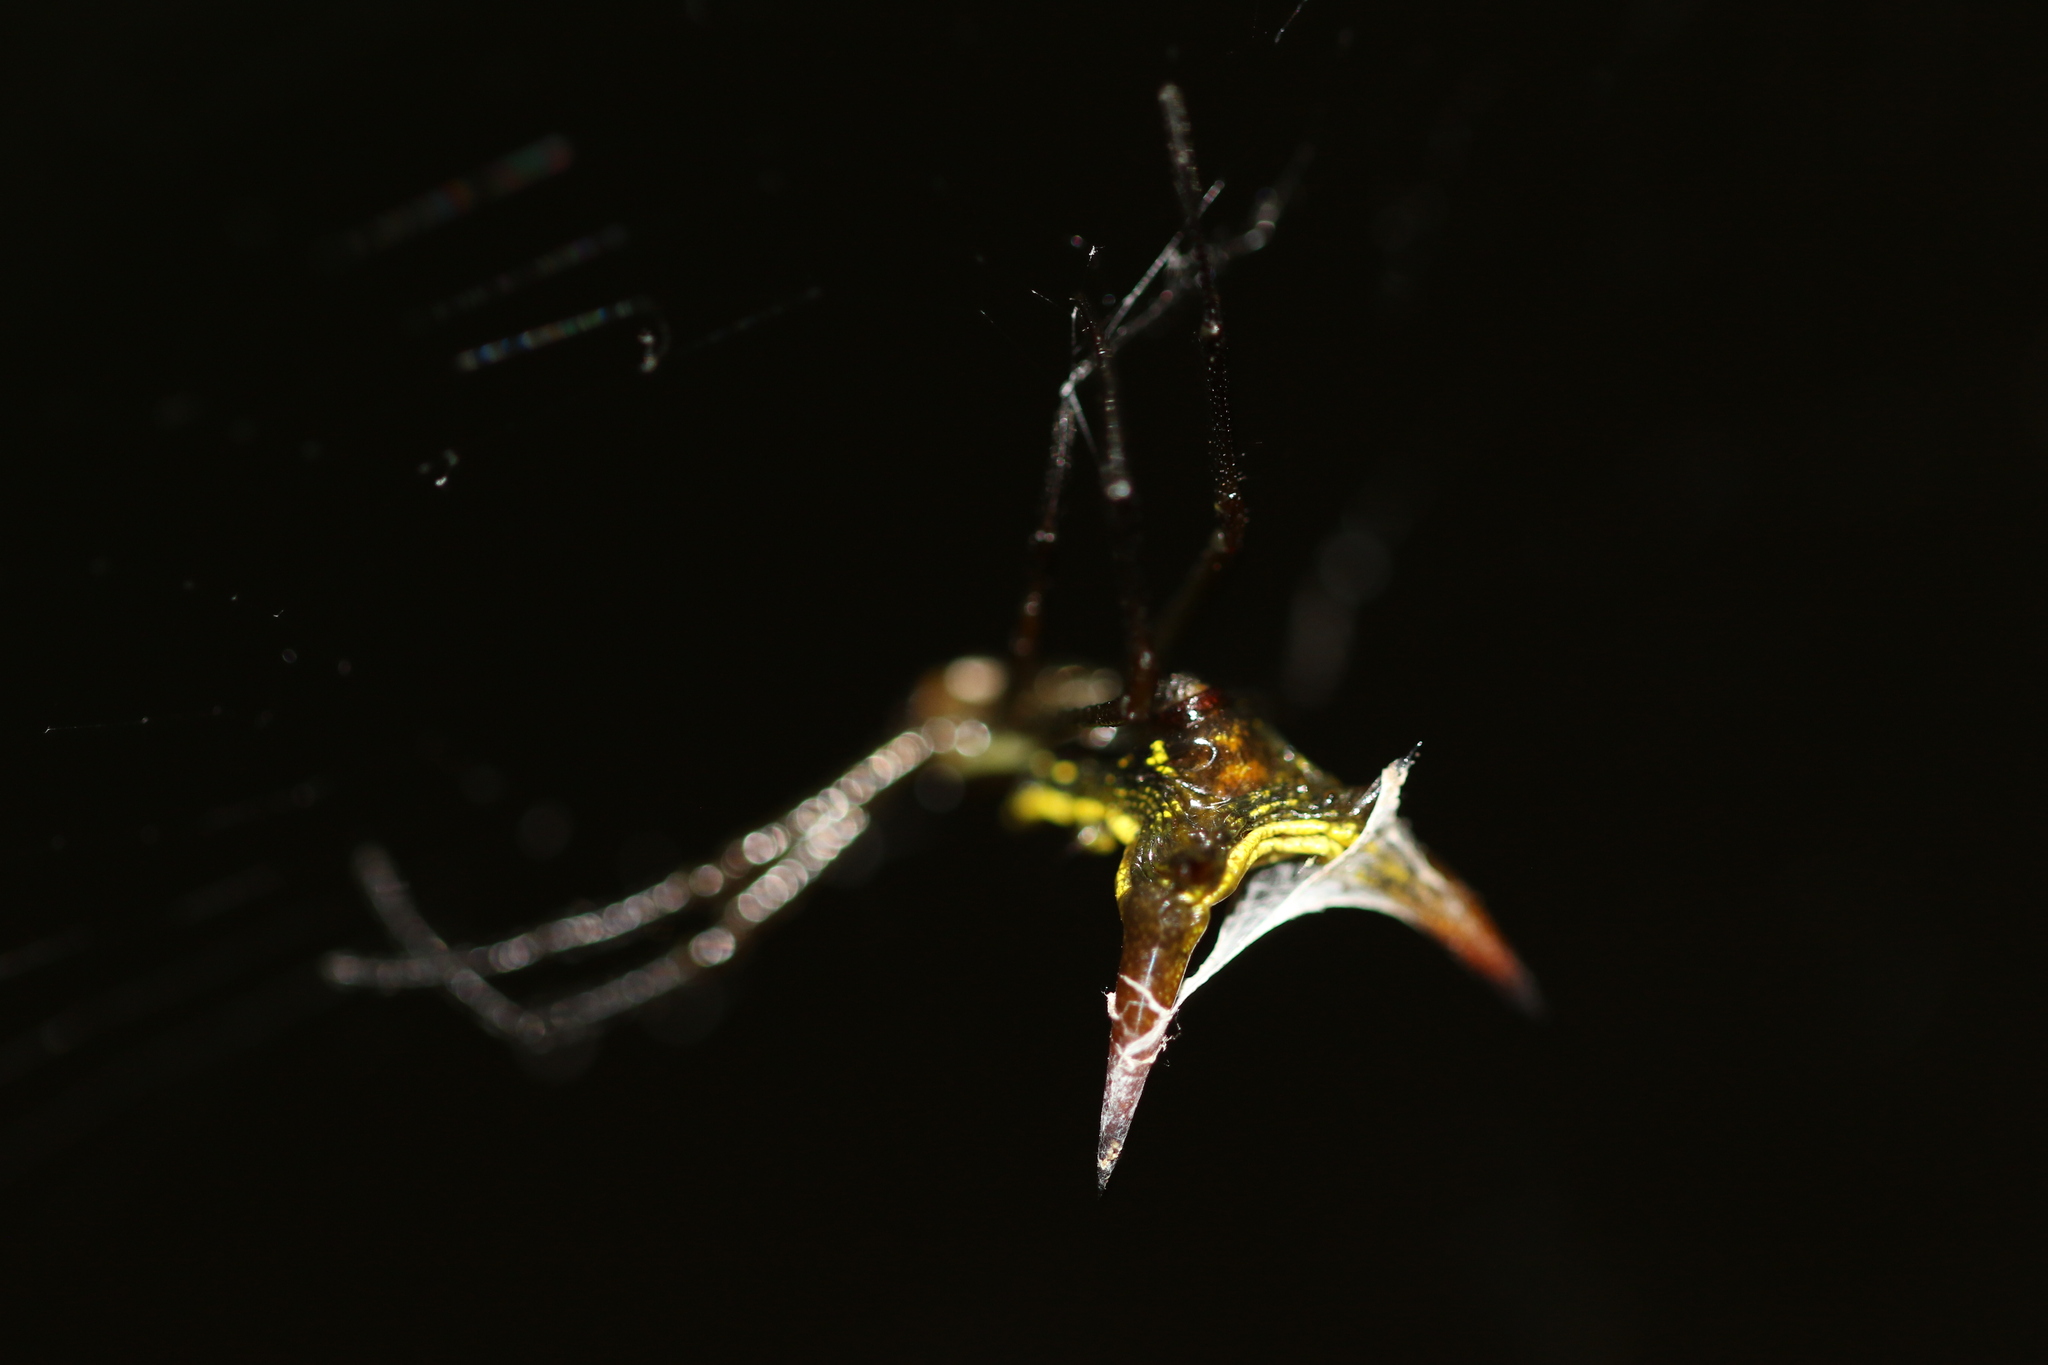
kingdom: Animalia
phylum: Arthropoda
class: Arachnida
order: Araneae
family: Araneidae
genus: Micrathena
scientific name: Micrathena crassispina
